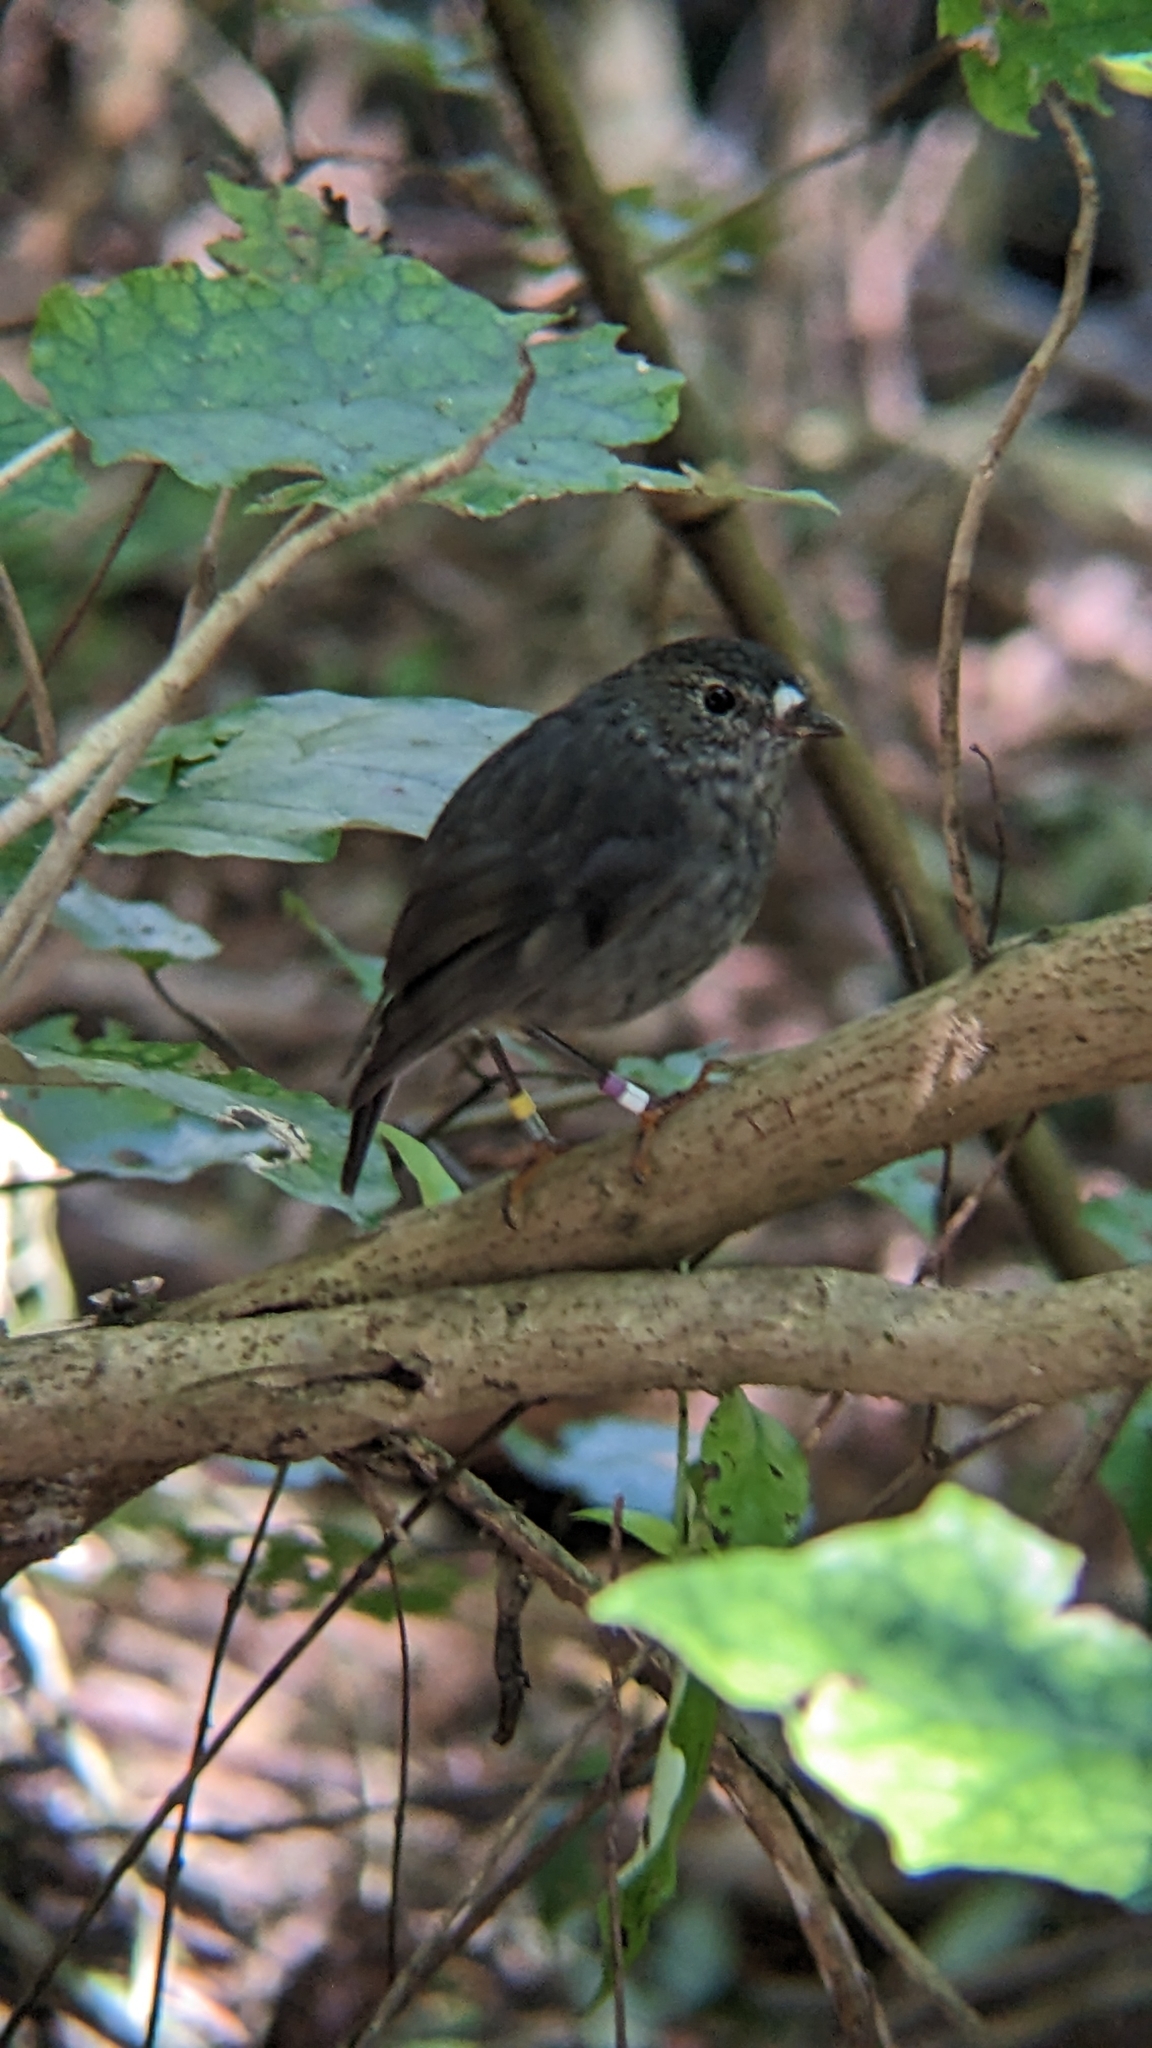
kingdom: Animalia
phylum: Chordata
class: Aves
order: Passeriformes
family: Petroicidae
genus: Petroica
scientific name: Petroica australis
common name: New zealand robin
